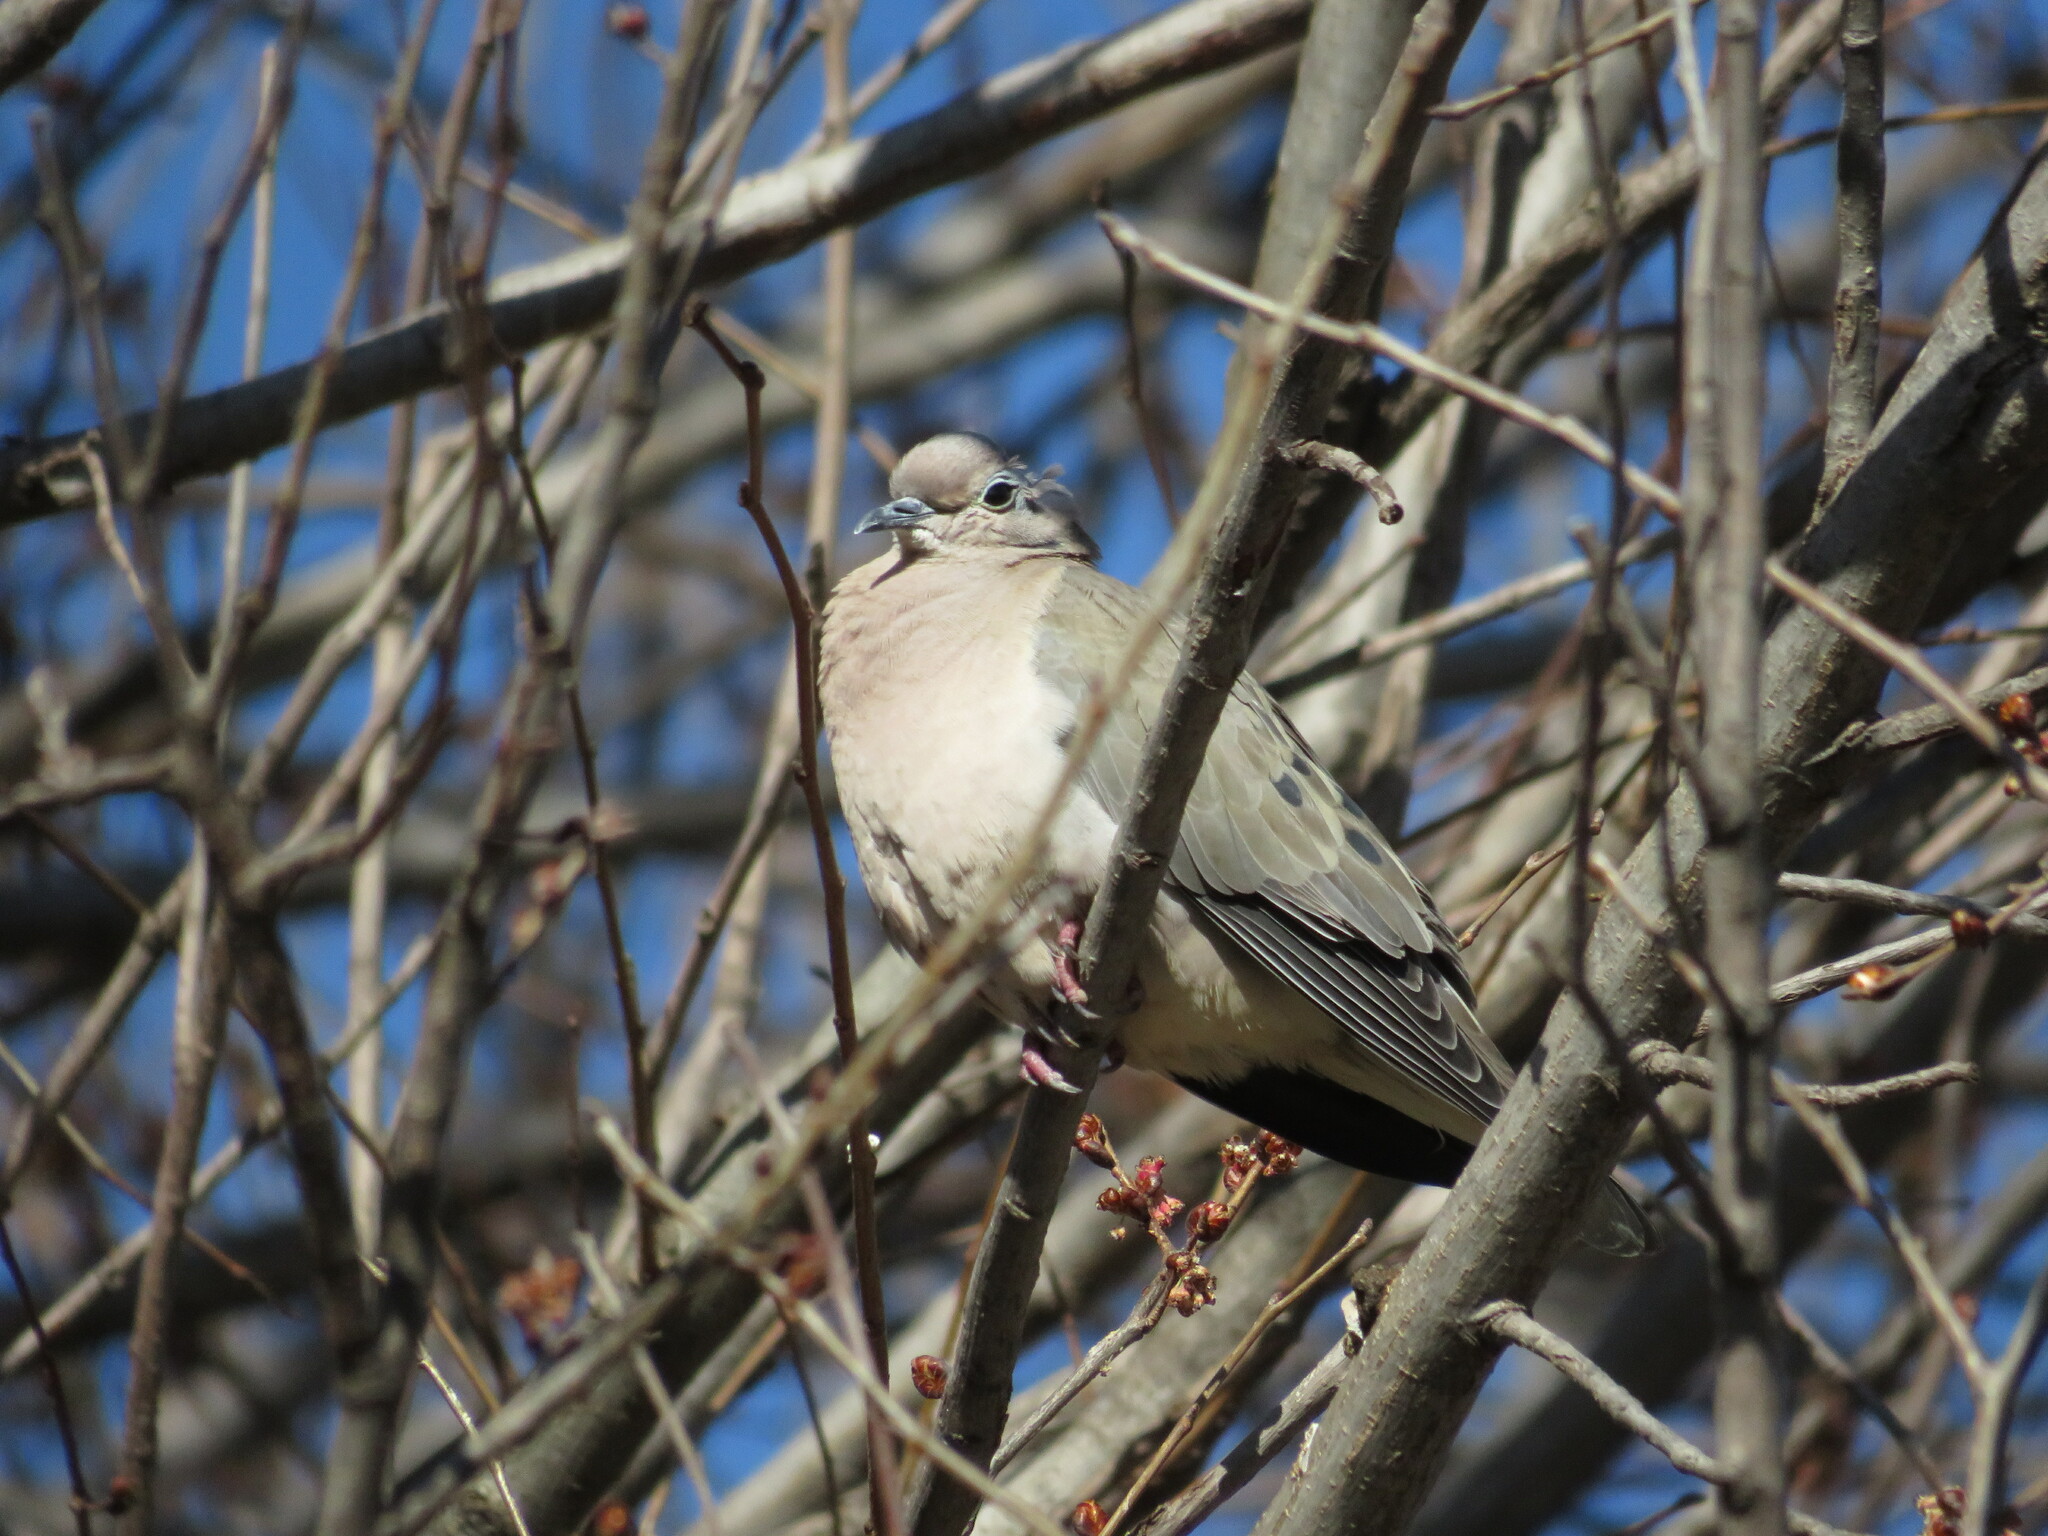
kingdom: Animalia
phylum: Chordata
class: Aves
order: Columbiformes
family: Columbidae
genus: Zenaida
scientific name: Zenaida auriculata
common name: Eared dove
